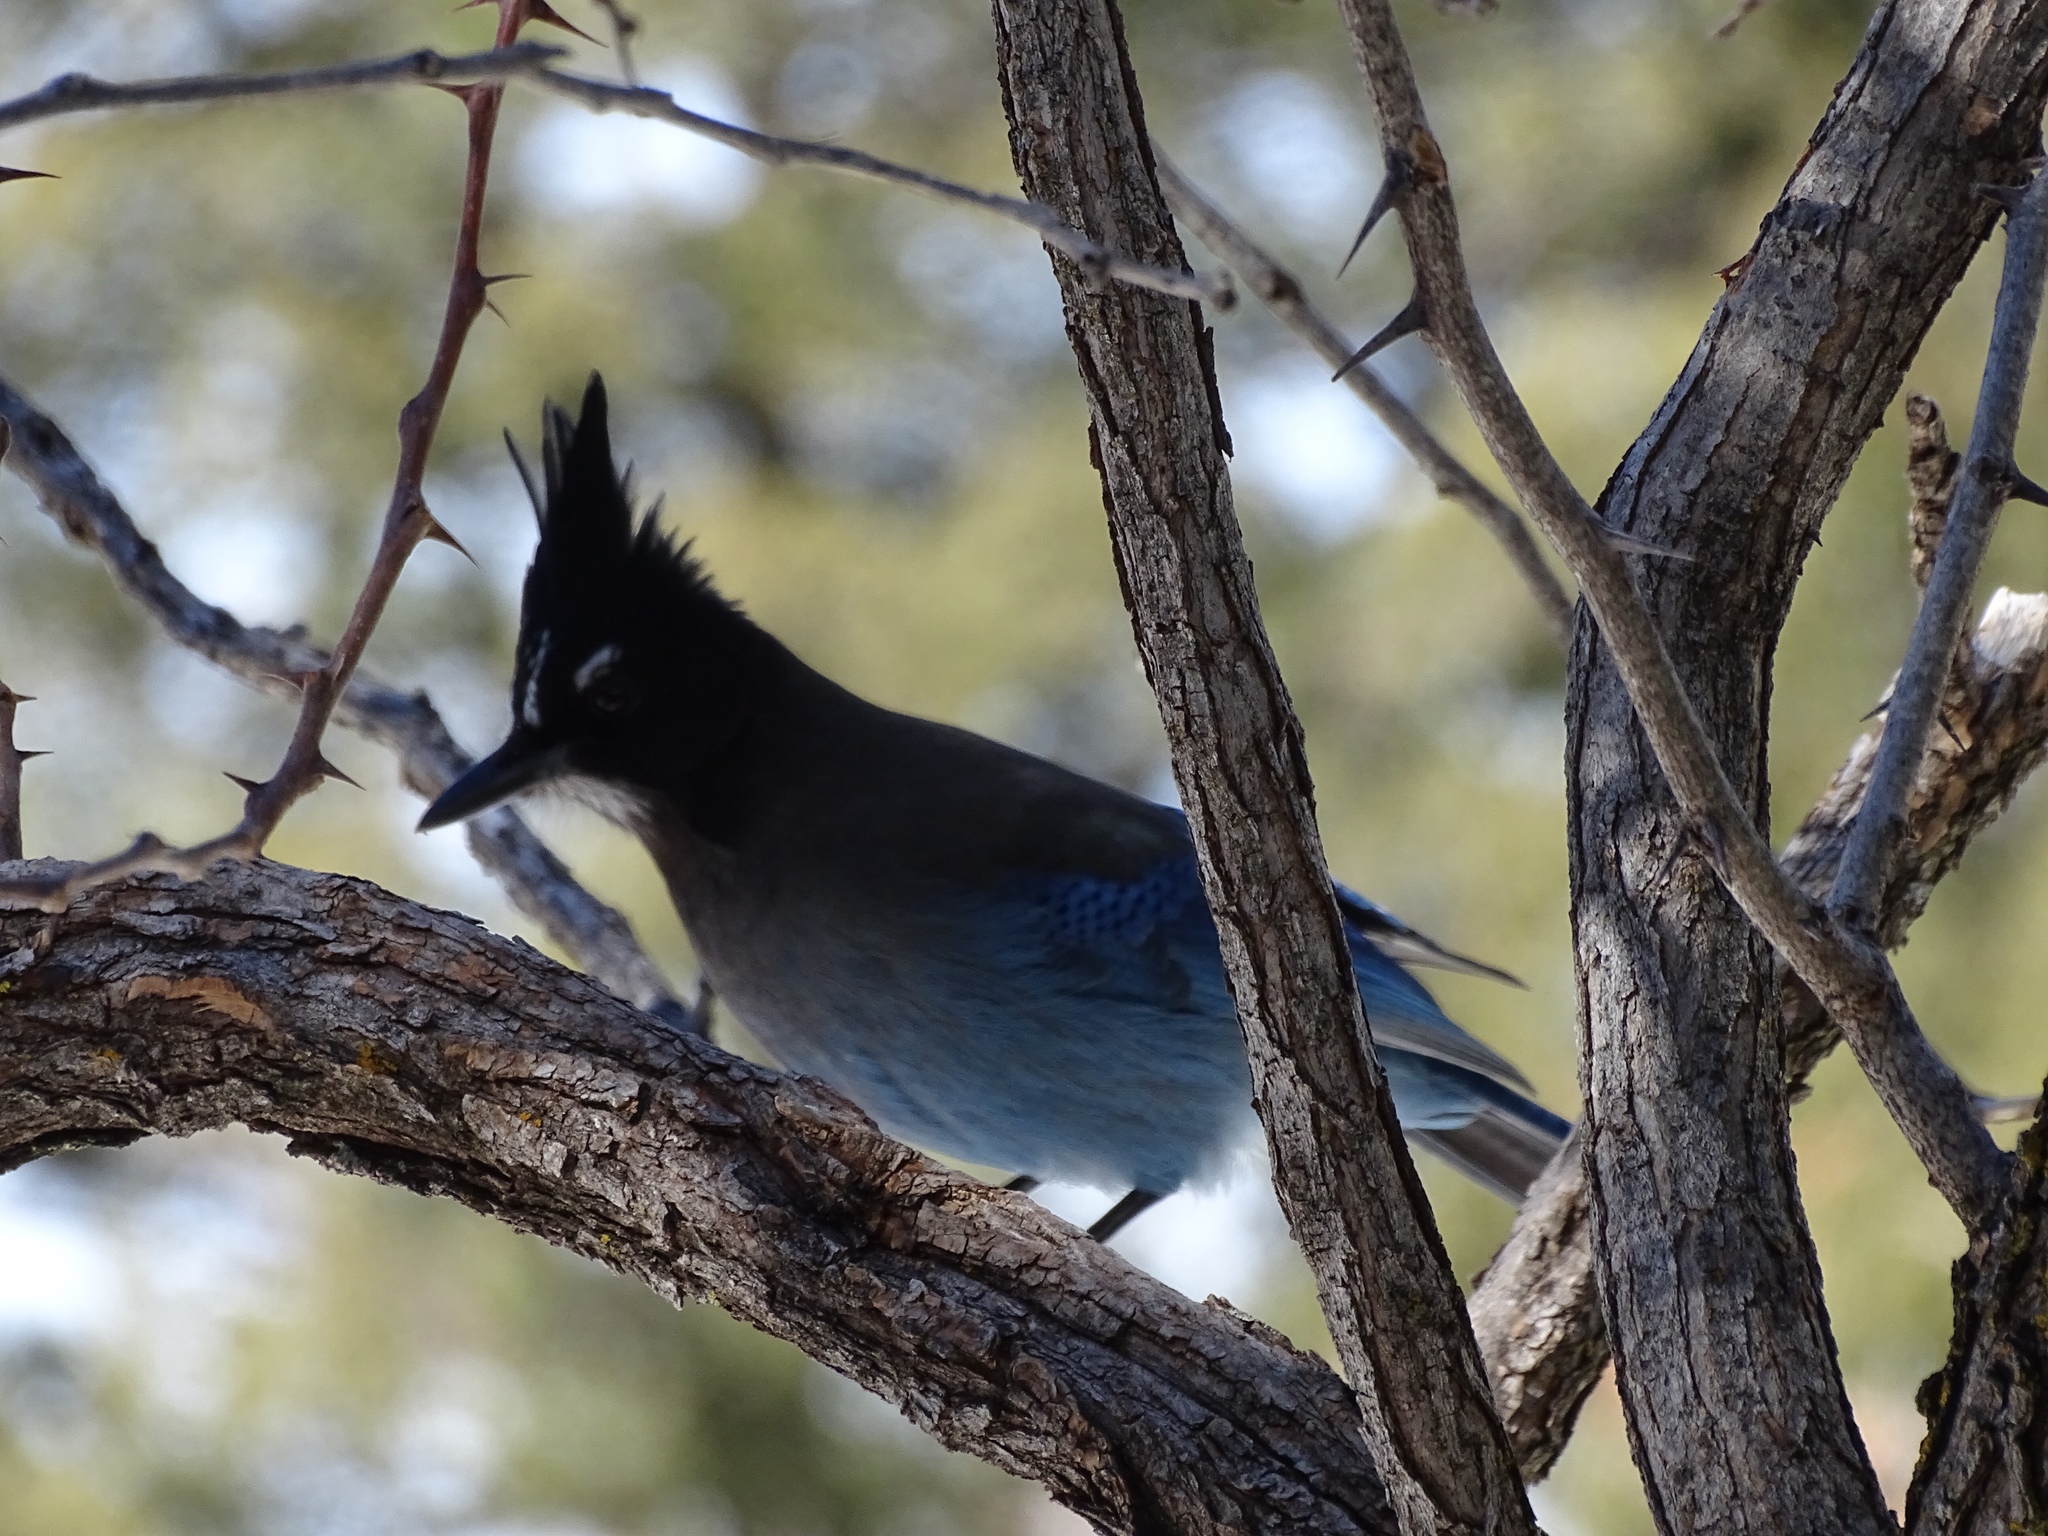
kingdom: Animalia
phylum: Chordata
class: Aves
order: Passeriformes
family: Corvidae
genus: Cyanocitta
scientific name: Cyanocitta stelleri
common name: Steller's jay
